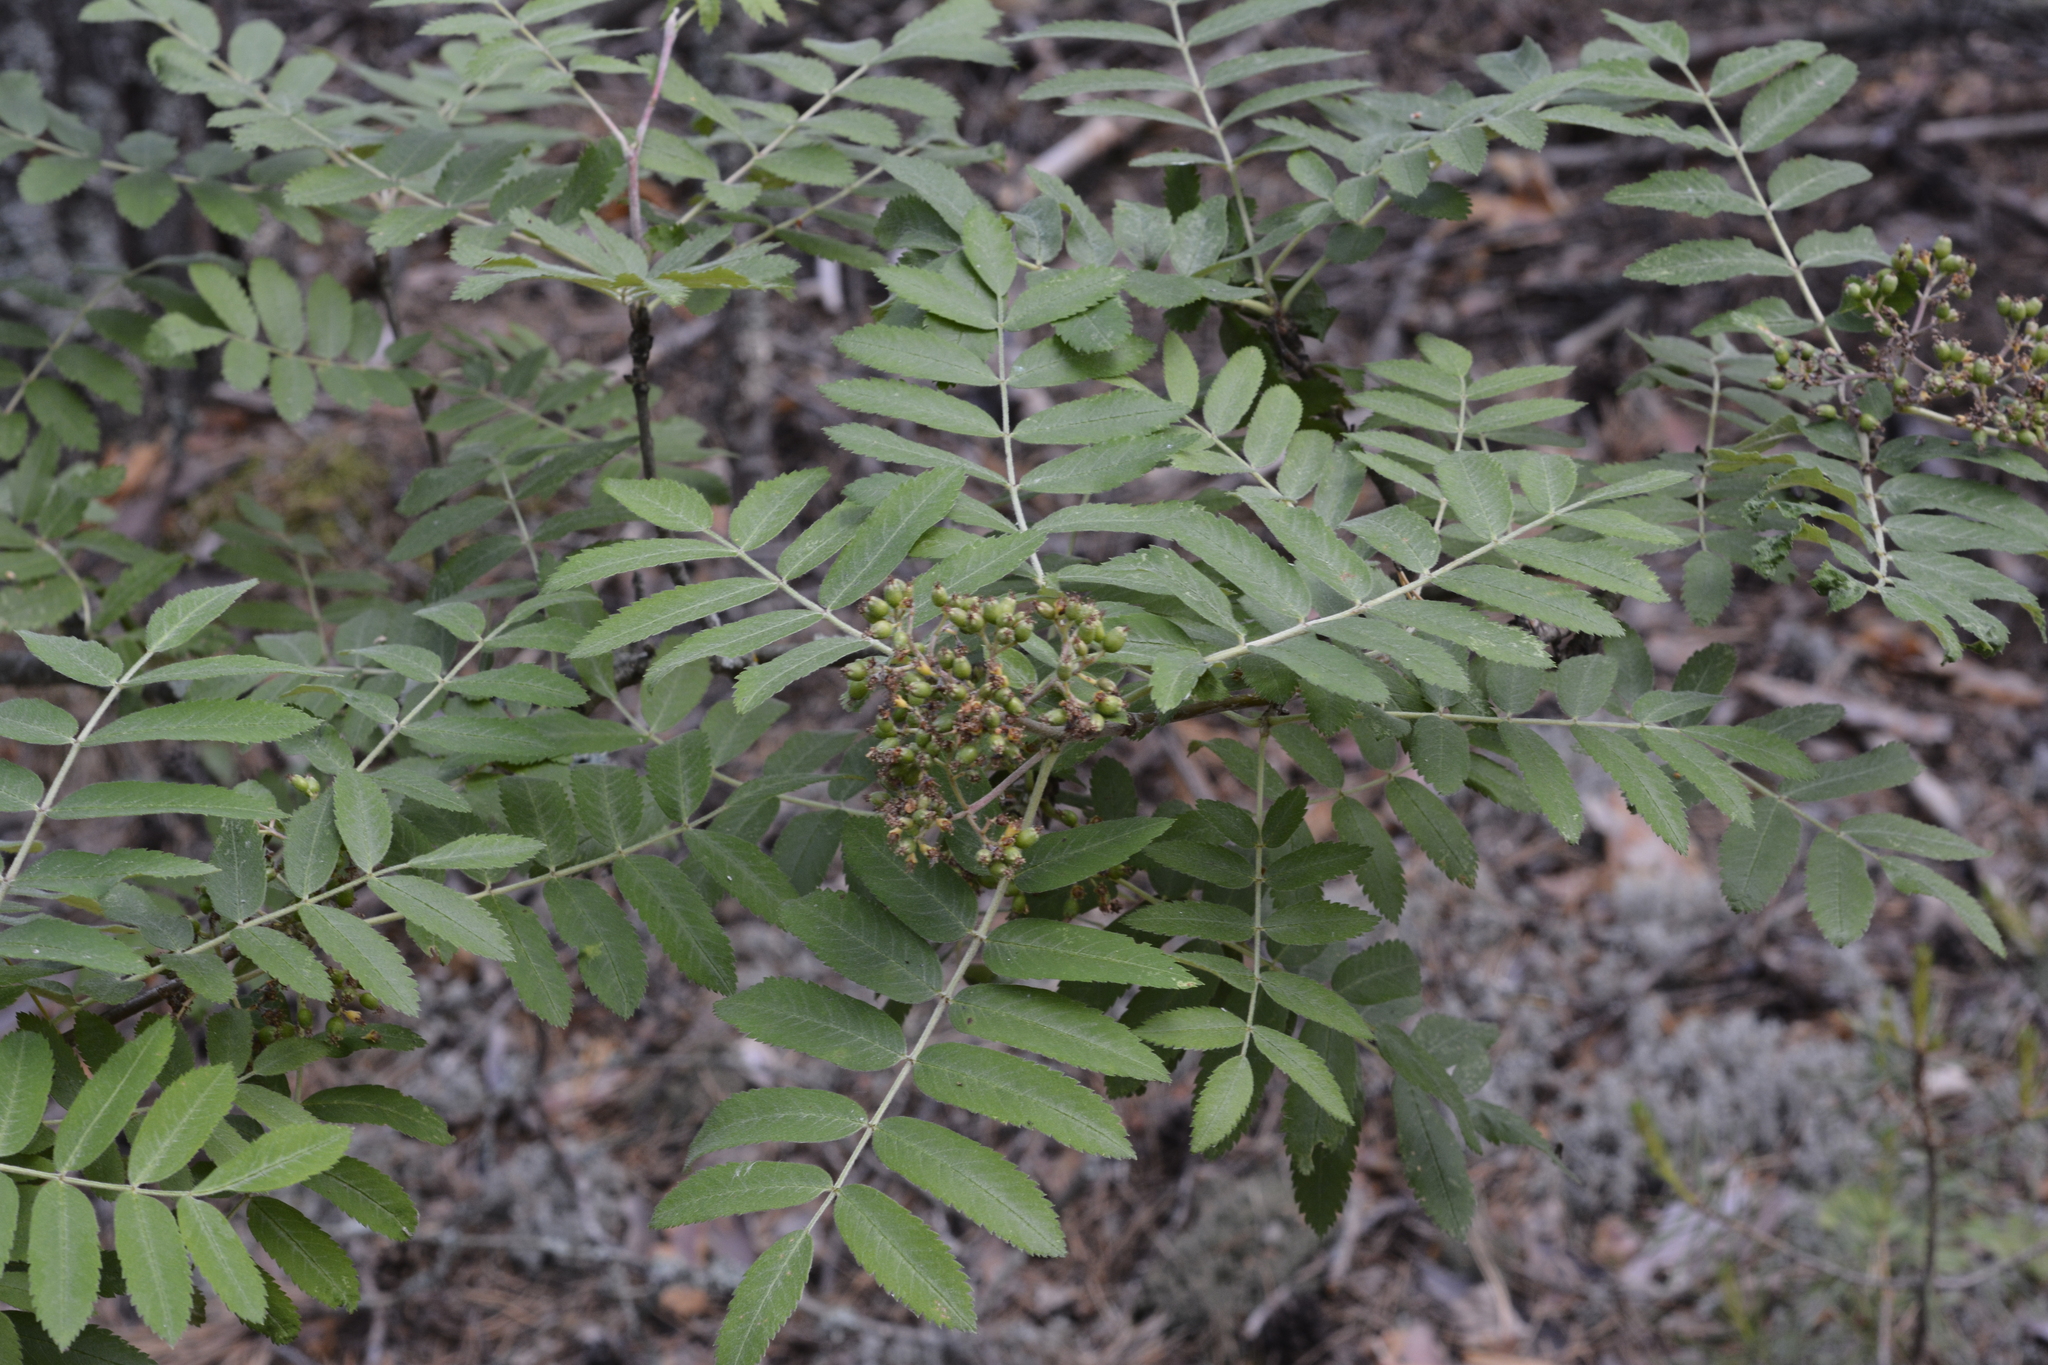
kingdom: Plantae
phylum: Tracheophyta
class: Magnoliopsida
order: Rosales
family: Rosaceae
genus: Sorbus
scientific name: Sorbus aucuparia
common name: Rowan
